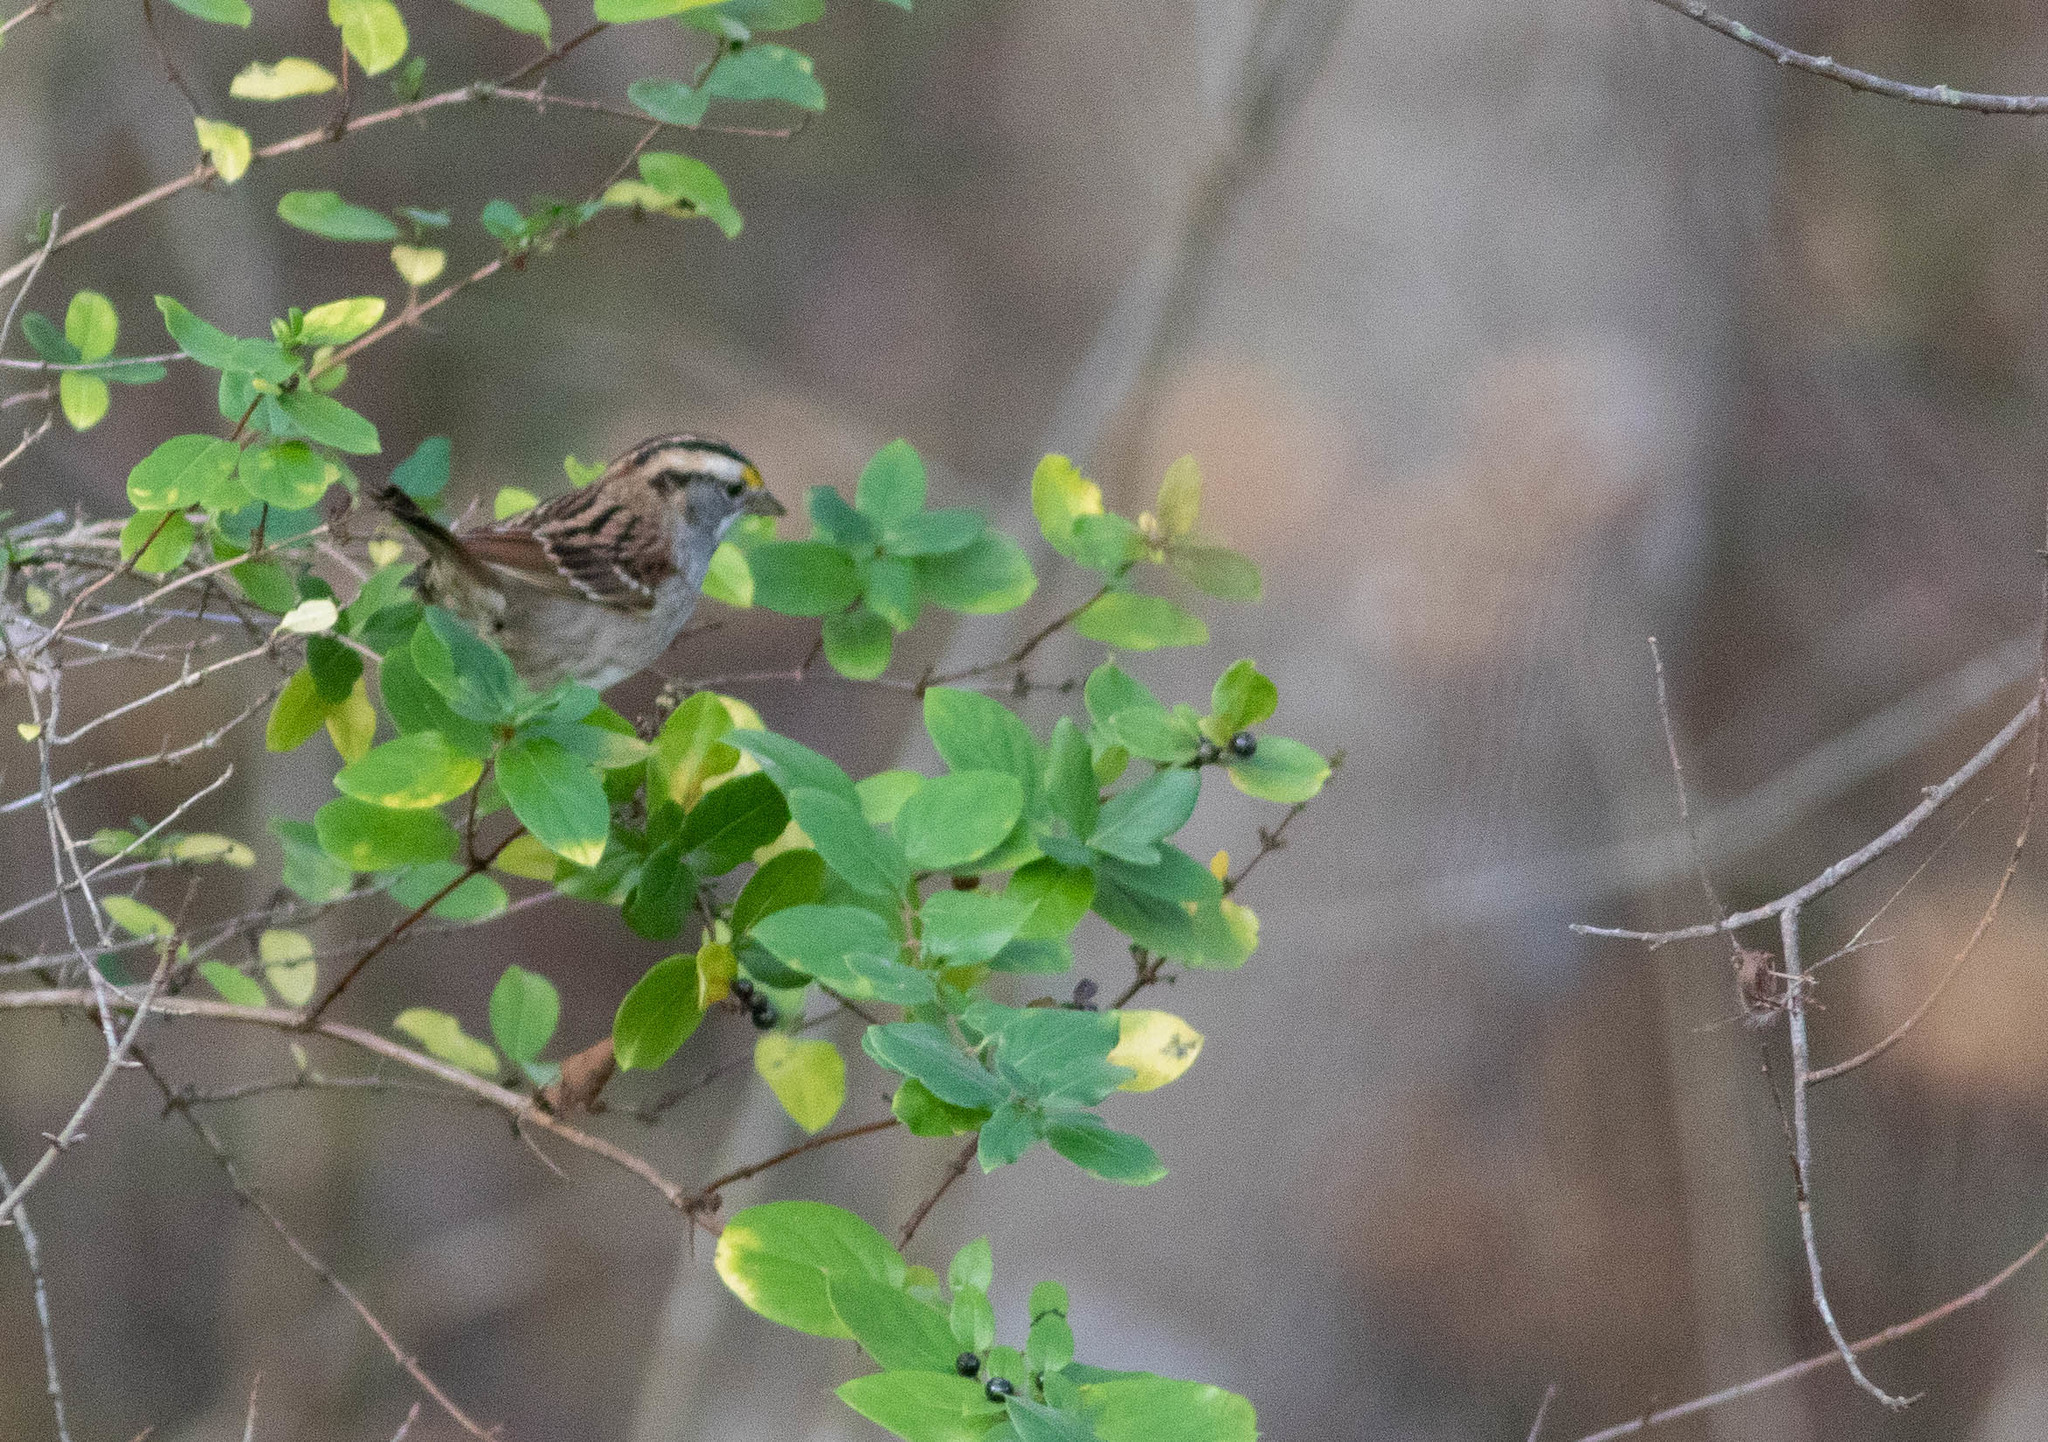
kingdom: Animalia
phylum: Chordata
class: Aves
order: Passeriformes
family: Passerellidae
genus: Zonotrichia
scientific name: Zonotrichia albicollis
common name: White-throated sparrow
